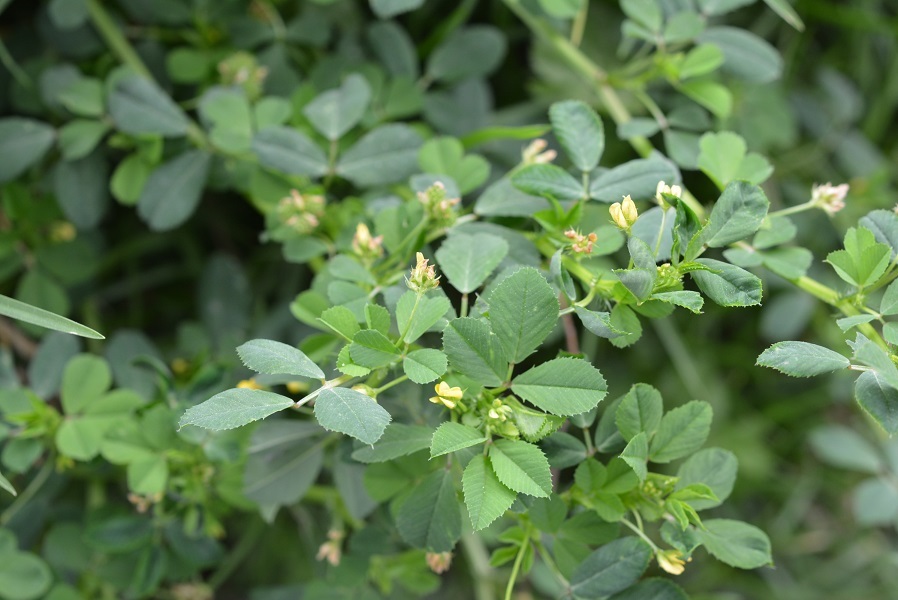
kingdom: Plantae
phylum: Tracheophyta
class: Magnoliopsida
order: Fabales
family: Fabaceae
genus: Medicago
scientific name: Medicago polymorpha
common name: Burclover
